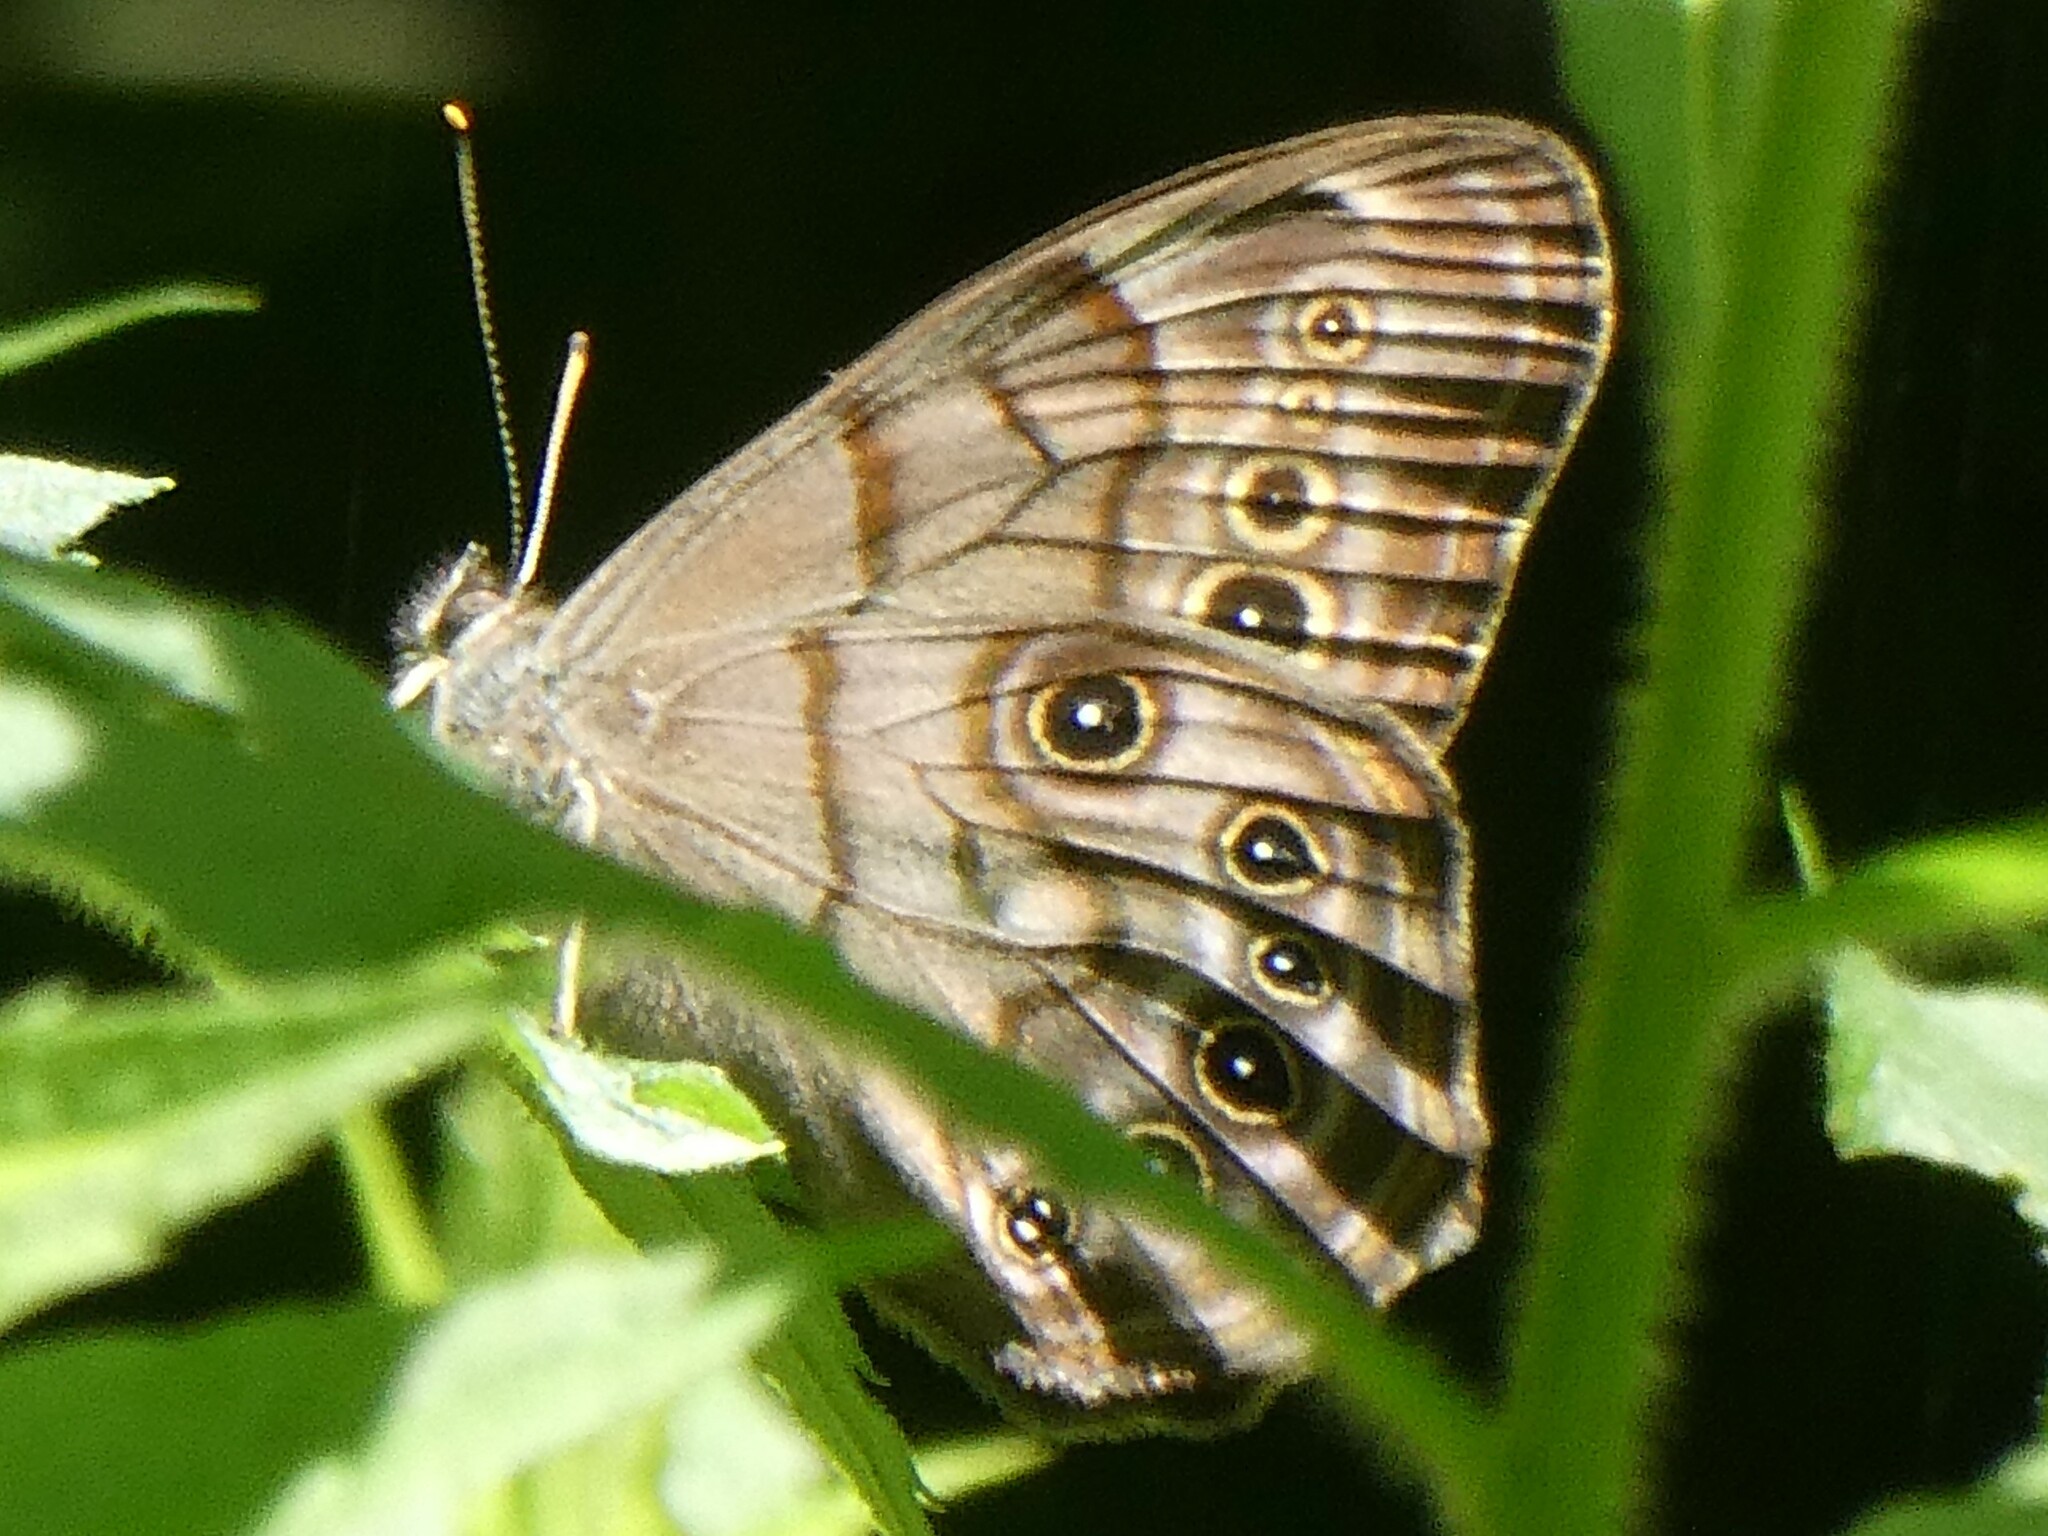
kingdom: Animalia
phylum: Arthropoda
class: Insecta
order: Lepidoptera
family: Nymphalidae
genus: Lethe
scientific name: Lethe anthedon
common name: Northern pearly-eye
